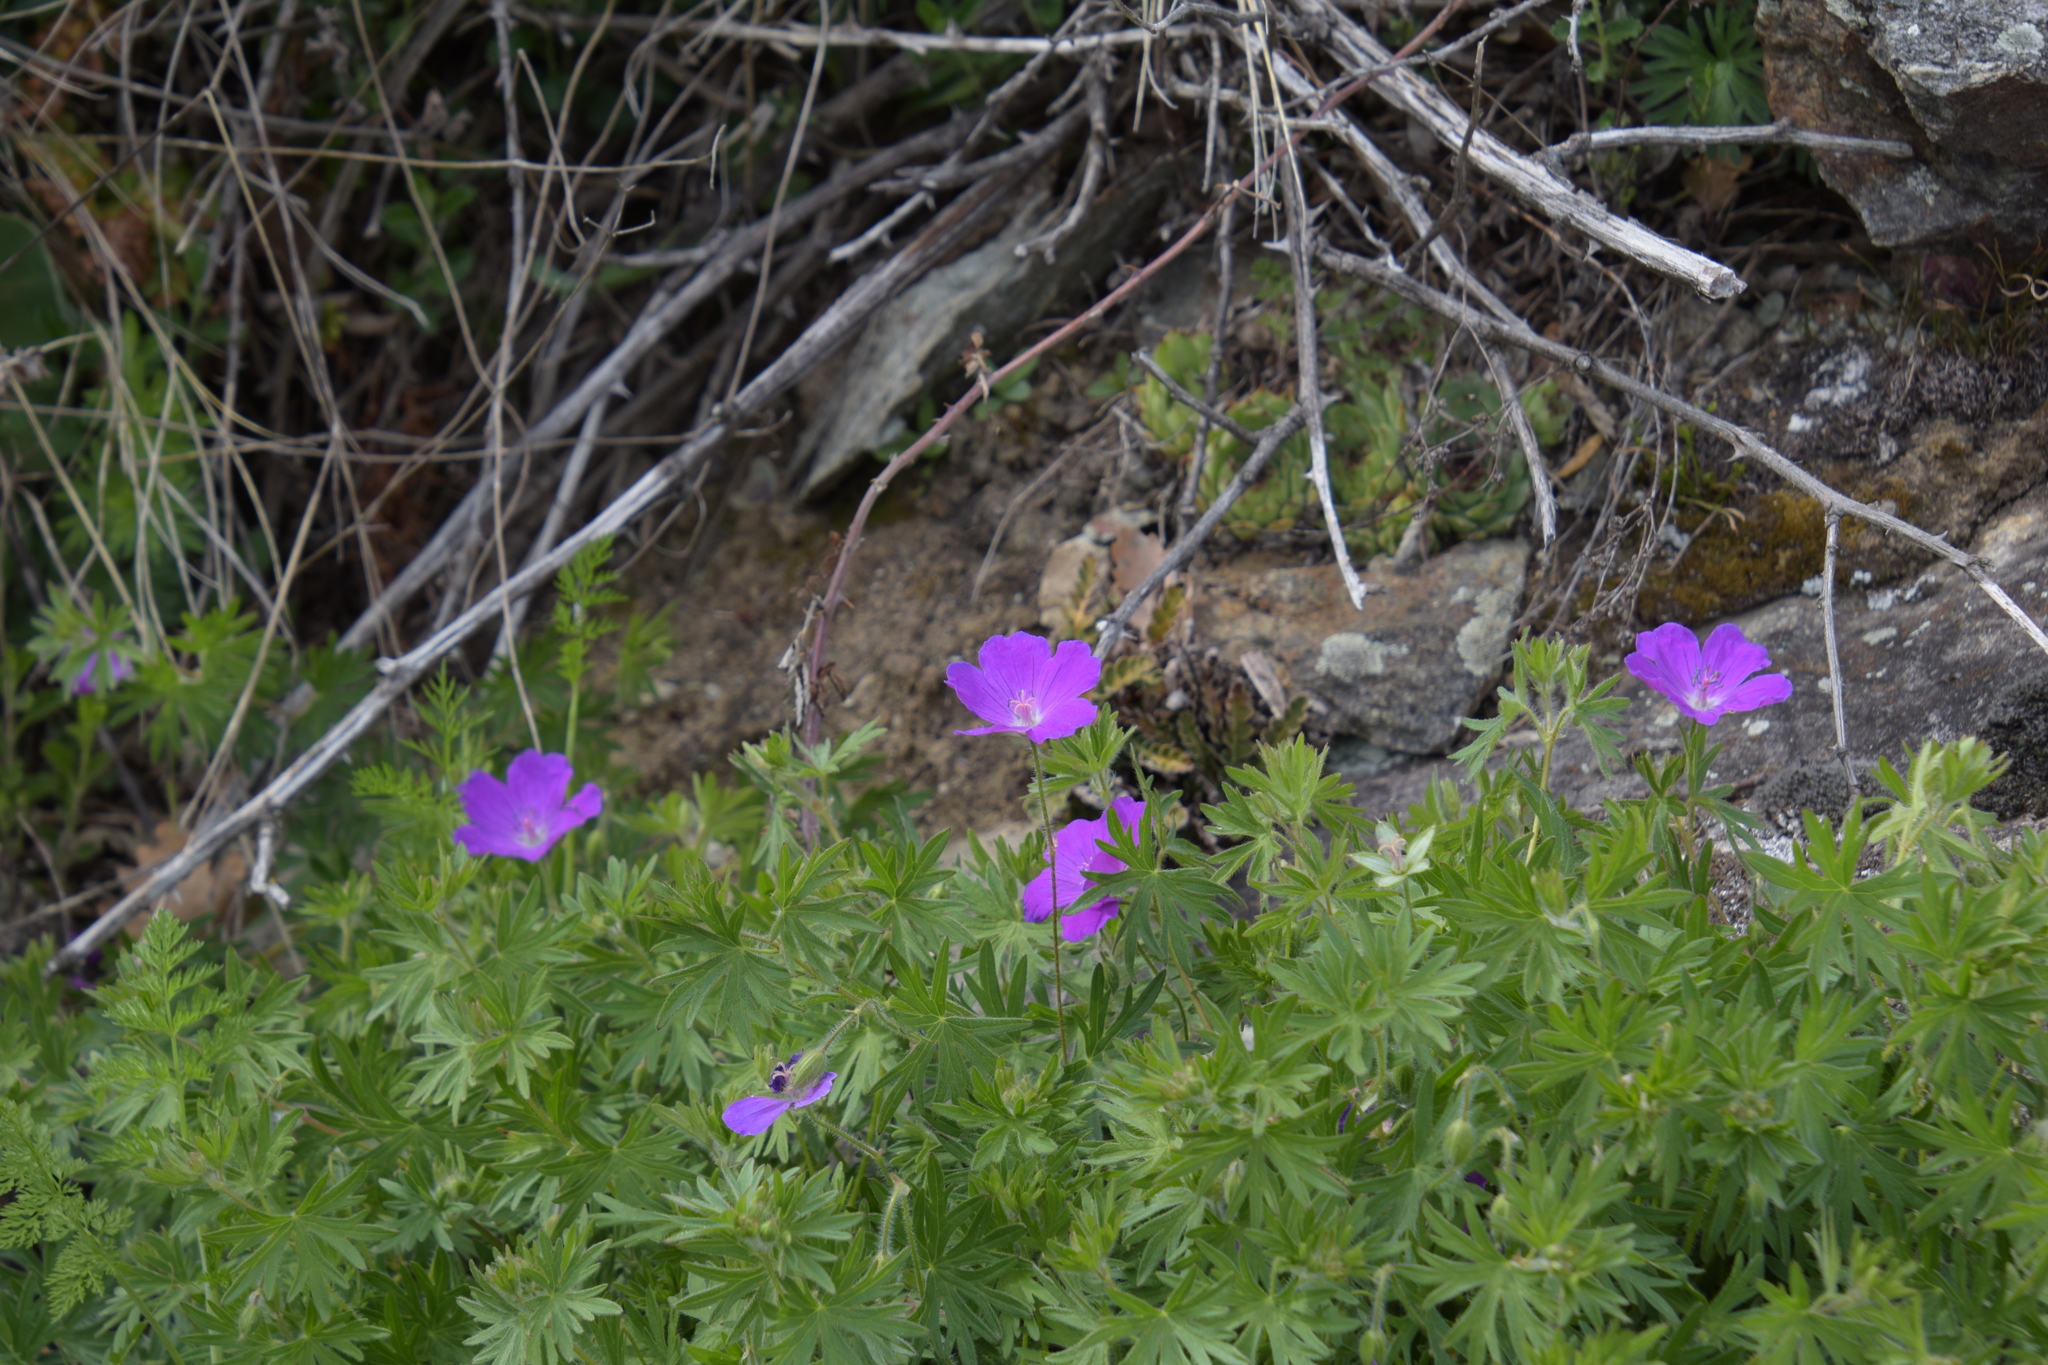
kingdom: Plantae
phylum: Tracheophyta
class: Magnoliopsida
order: Geraniales
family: Geraniaceae
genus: Geranium
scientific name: Geranium sanguineum
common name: Bloody crane's-bill
